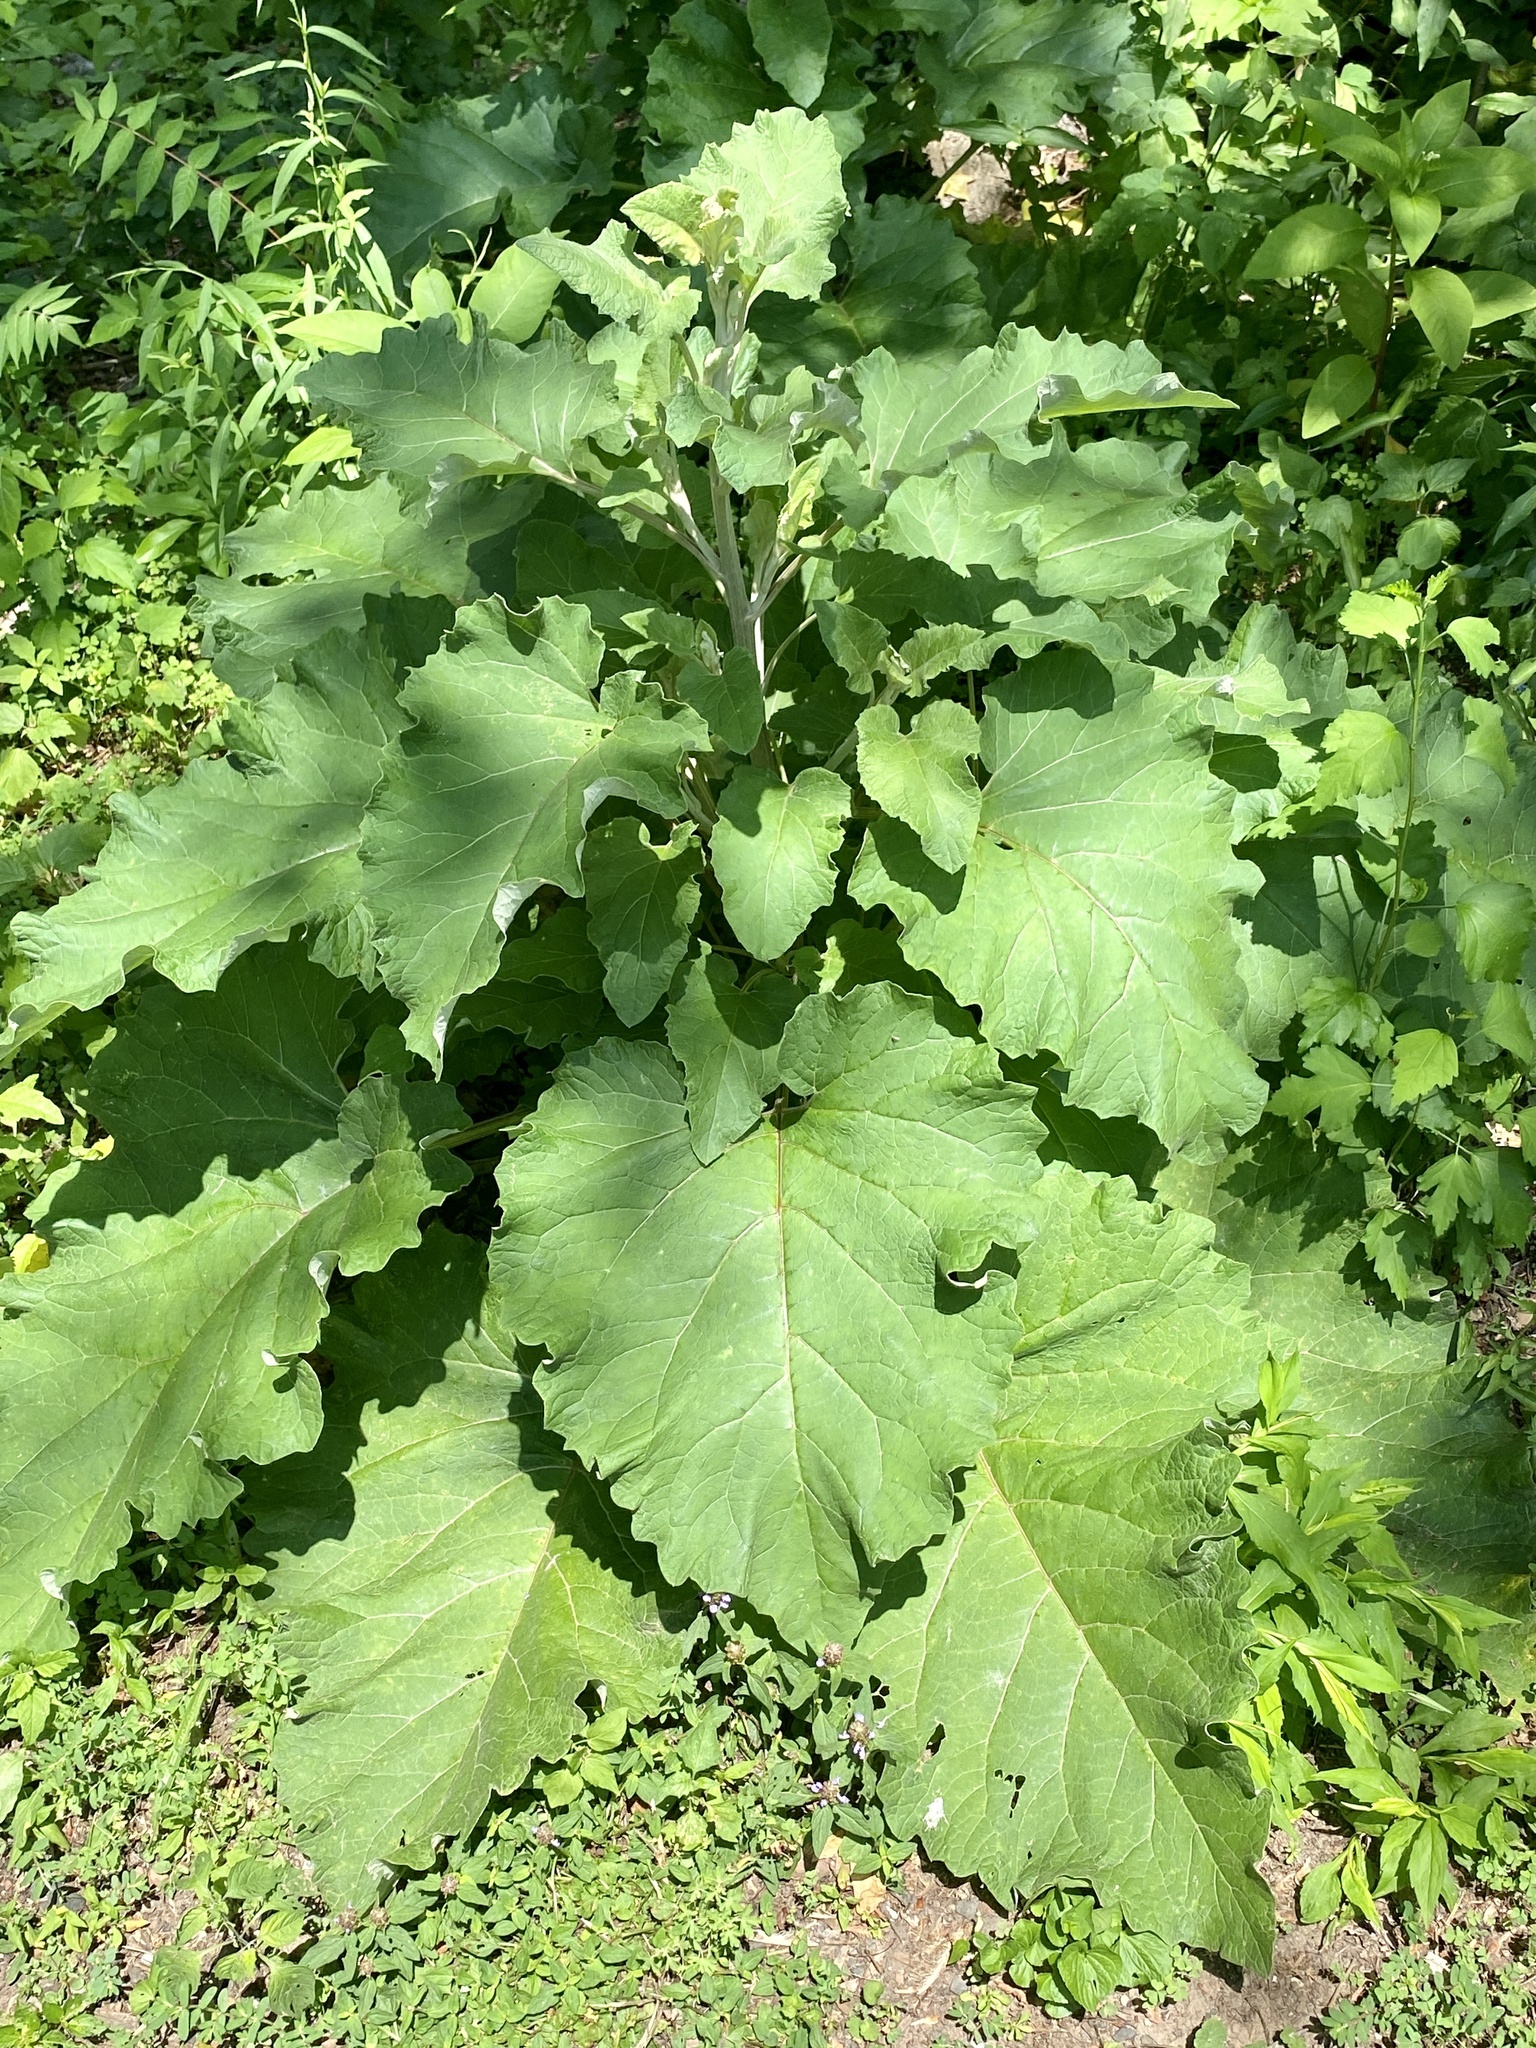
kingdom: Plantae
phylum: Tracheophyta
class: Magnoliopsida
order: Asterales
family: Asteraceae
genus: Arctium
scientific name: Arctium
